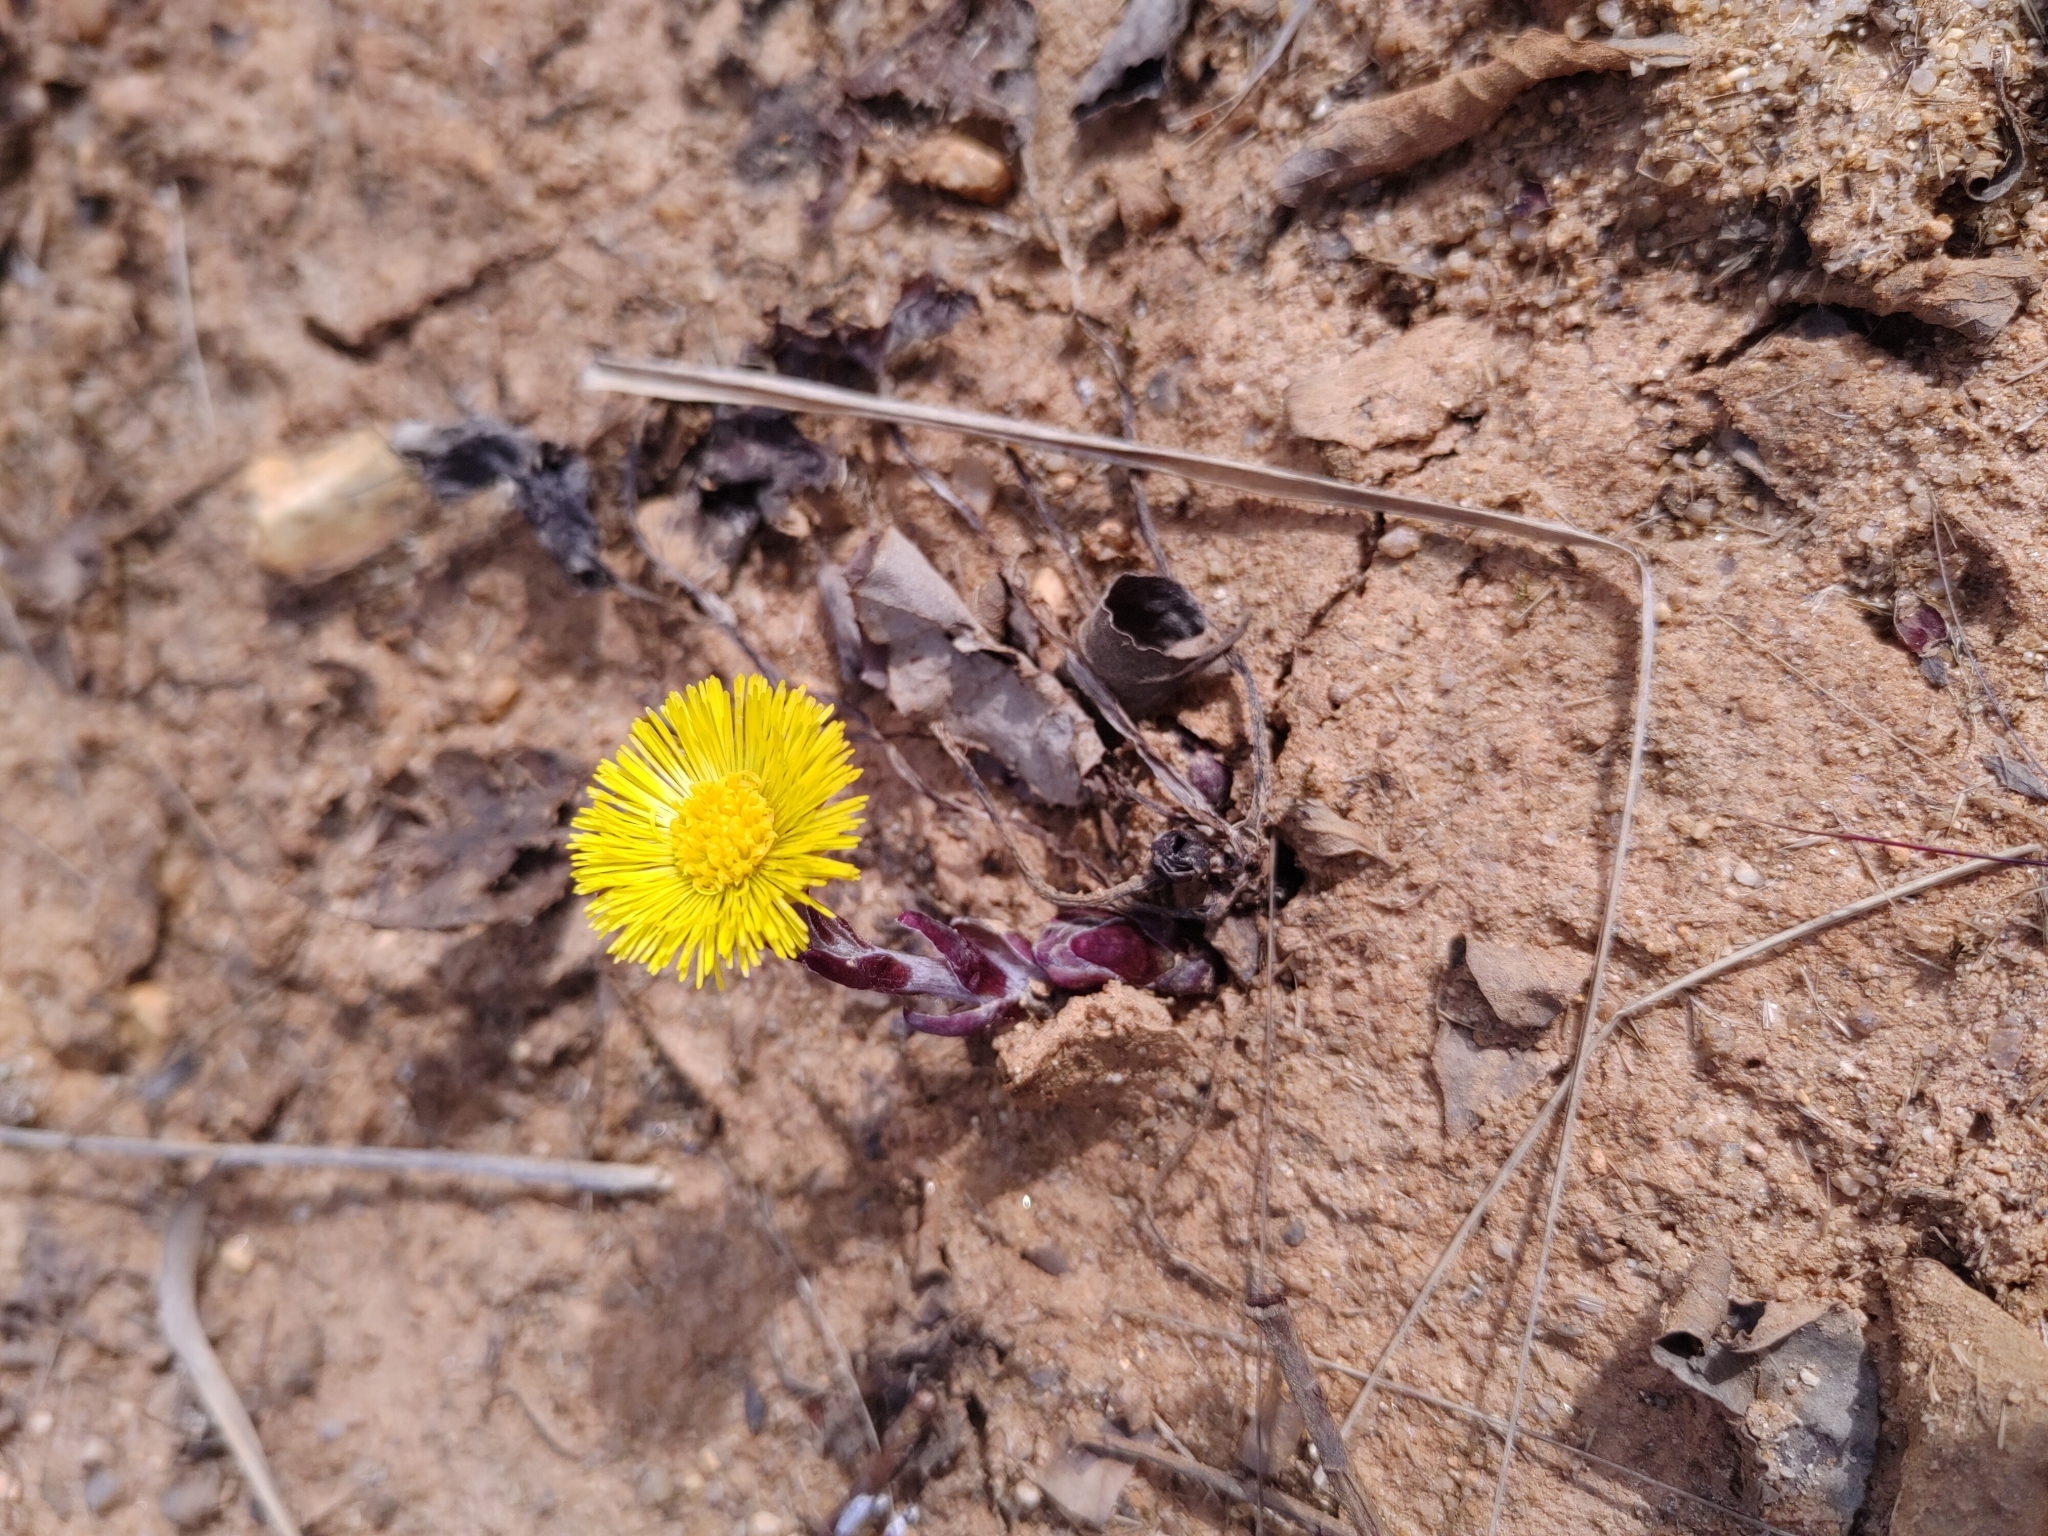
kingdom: Plantae
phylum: Tracheophyta
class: Magnoliopsida
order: Asterales
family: Asteraceae
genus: Tussilago
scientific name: Tussilago farfara
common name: Coltsfoot
